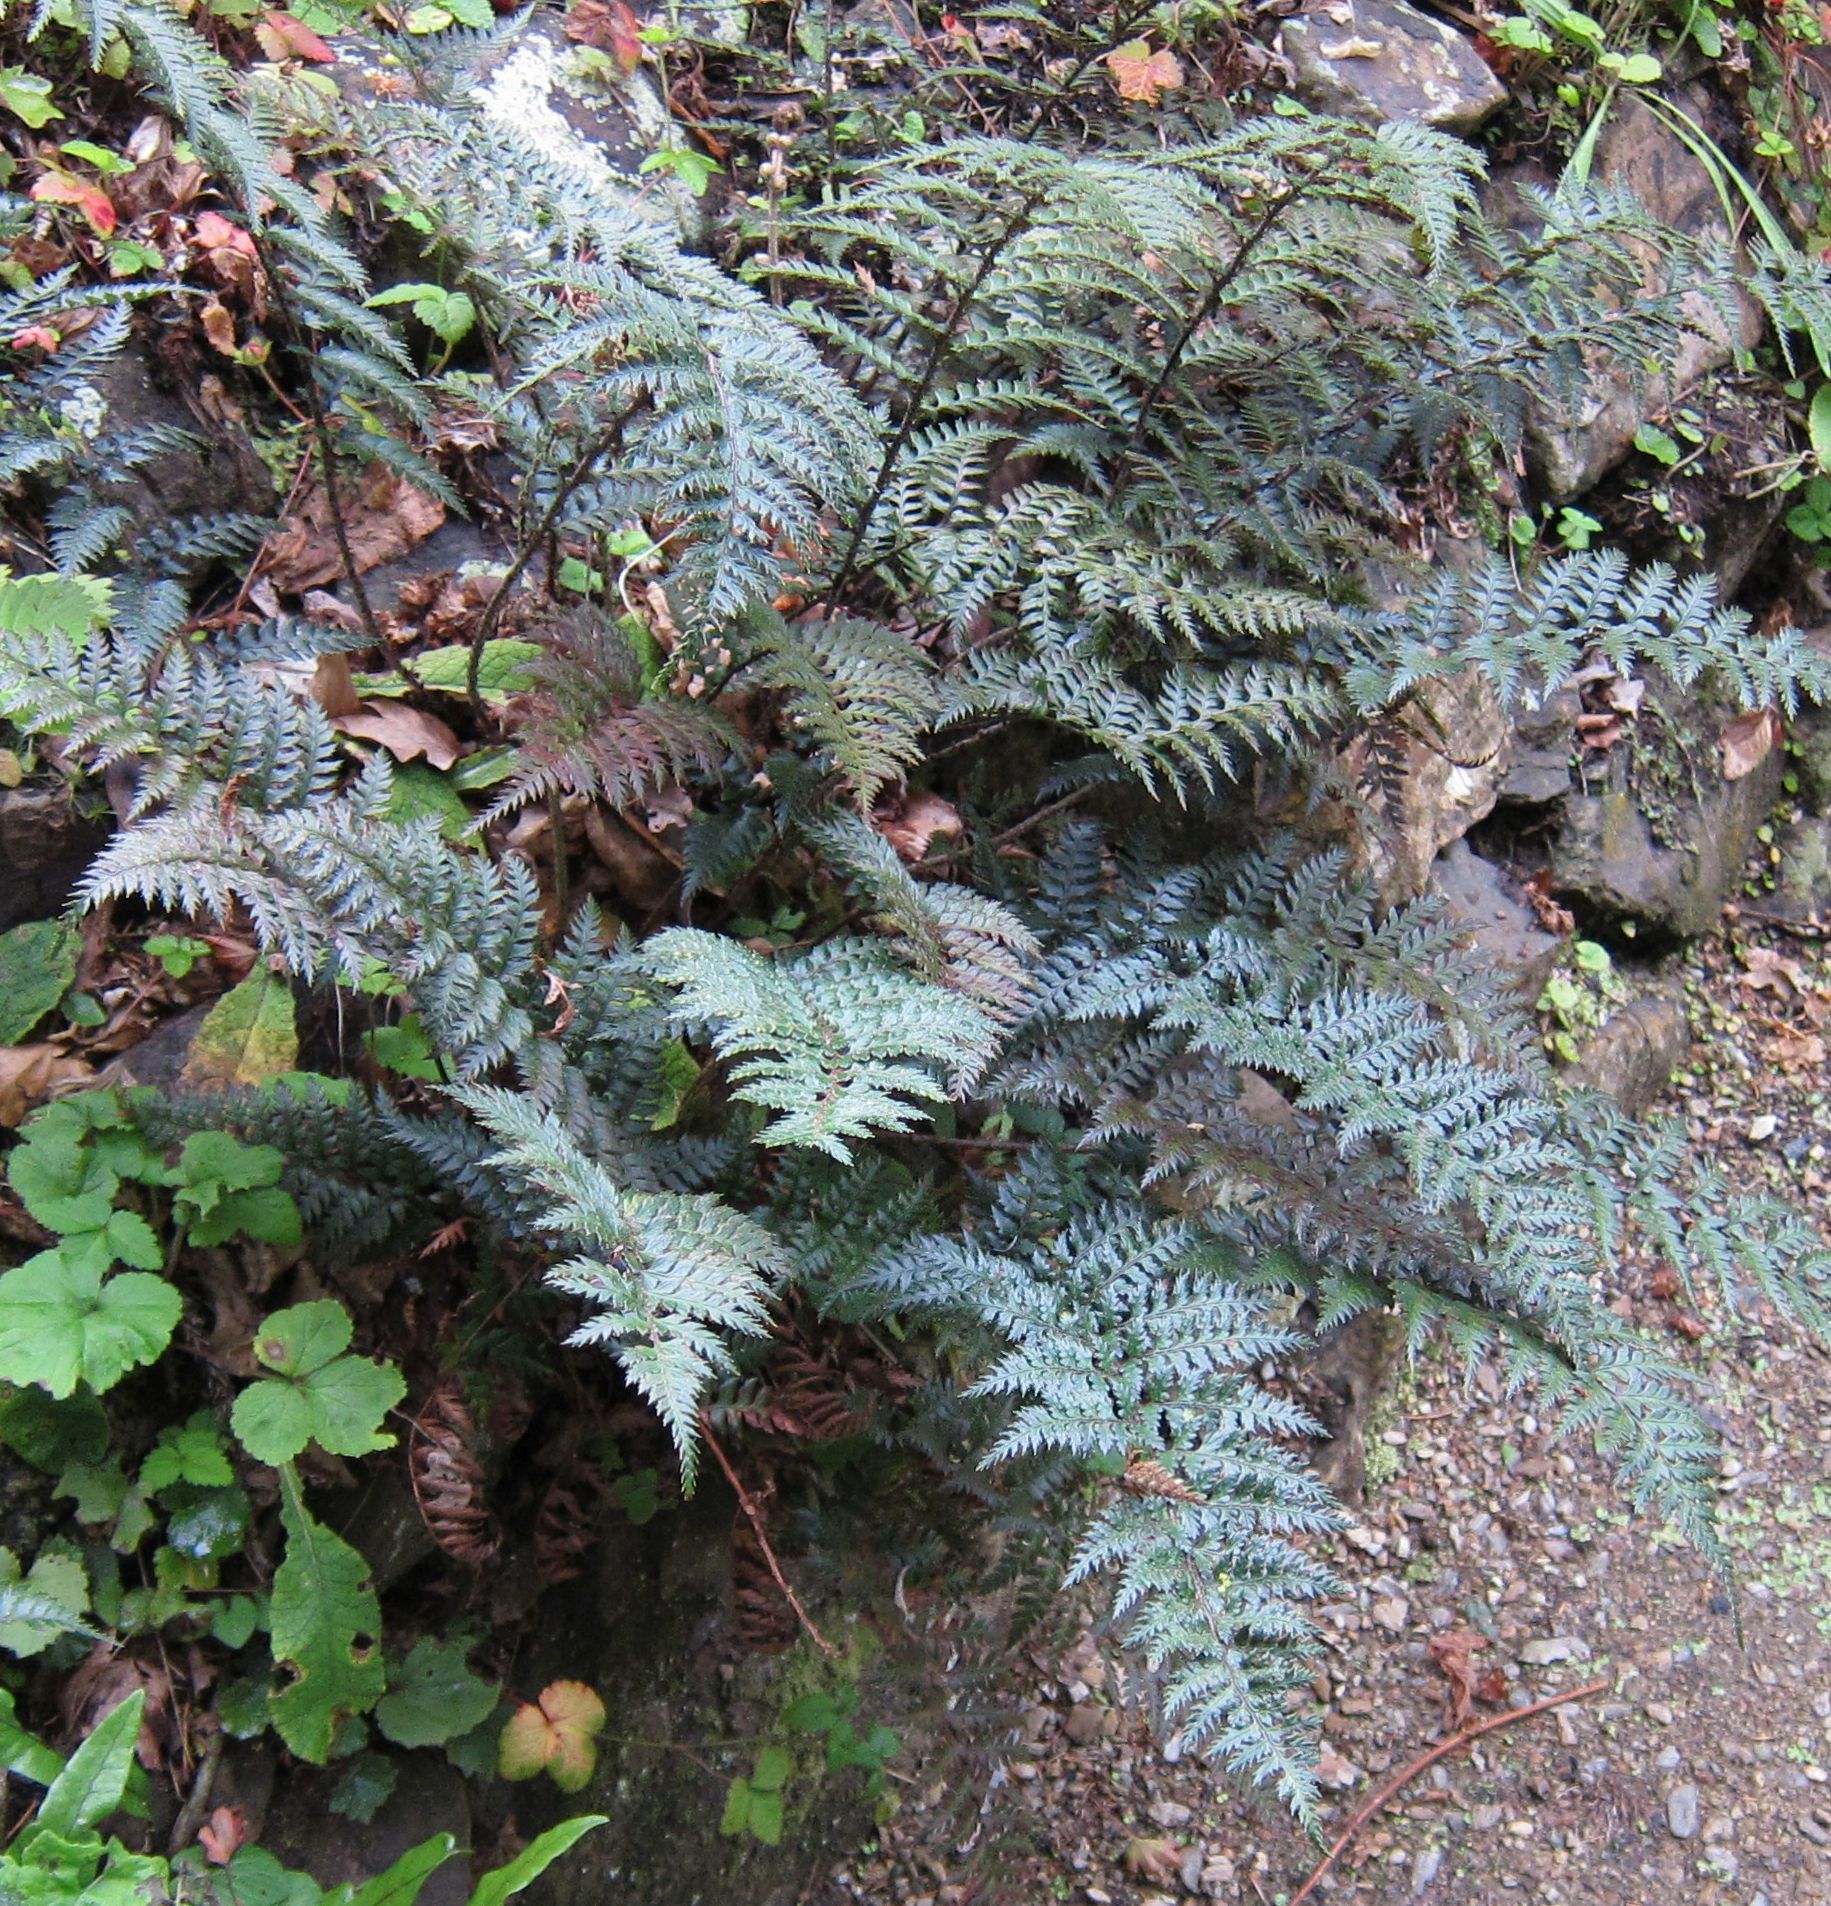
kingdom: Plantae
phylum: Tracheophyta
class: Polypodiopsida
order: Polypodiales
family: Dryopteridaceae
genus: Polystichum
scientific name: Polystichum neozelandicum
